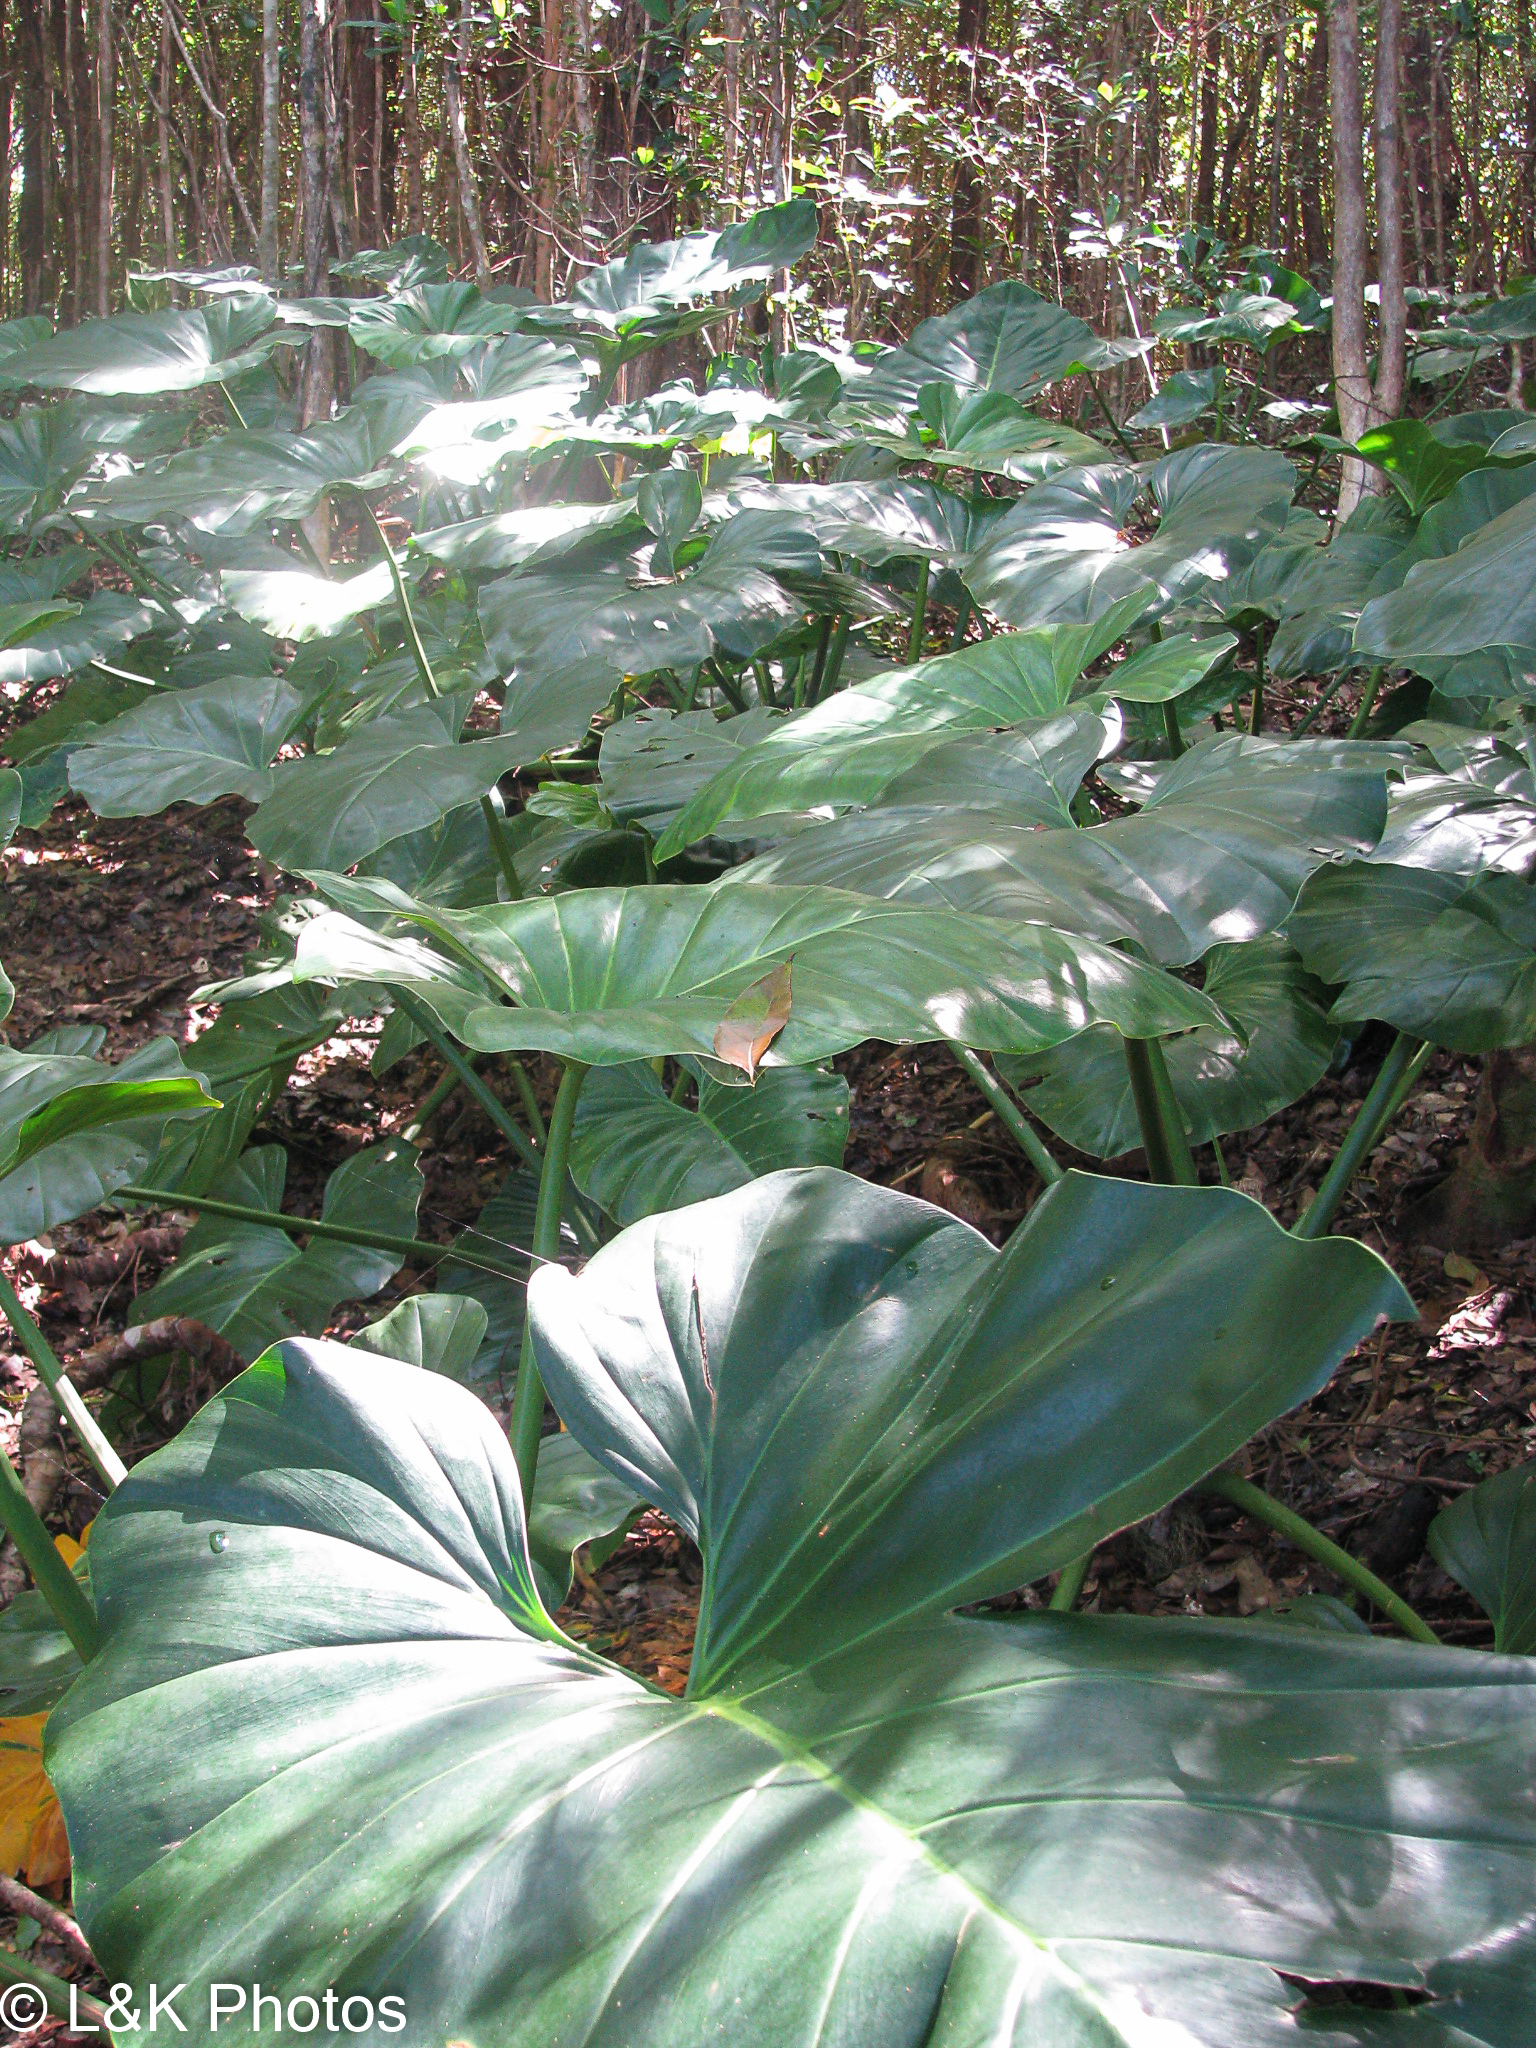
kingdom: Plantae
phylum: Tracheophyta
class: Liliopsida
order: Alismatales
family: Araceae
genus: Philodendron
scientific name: Philodendron giganteum
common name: Giant philodendron
